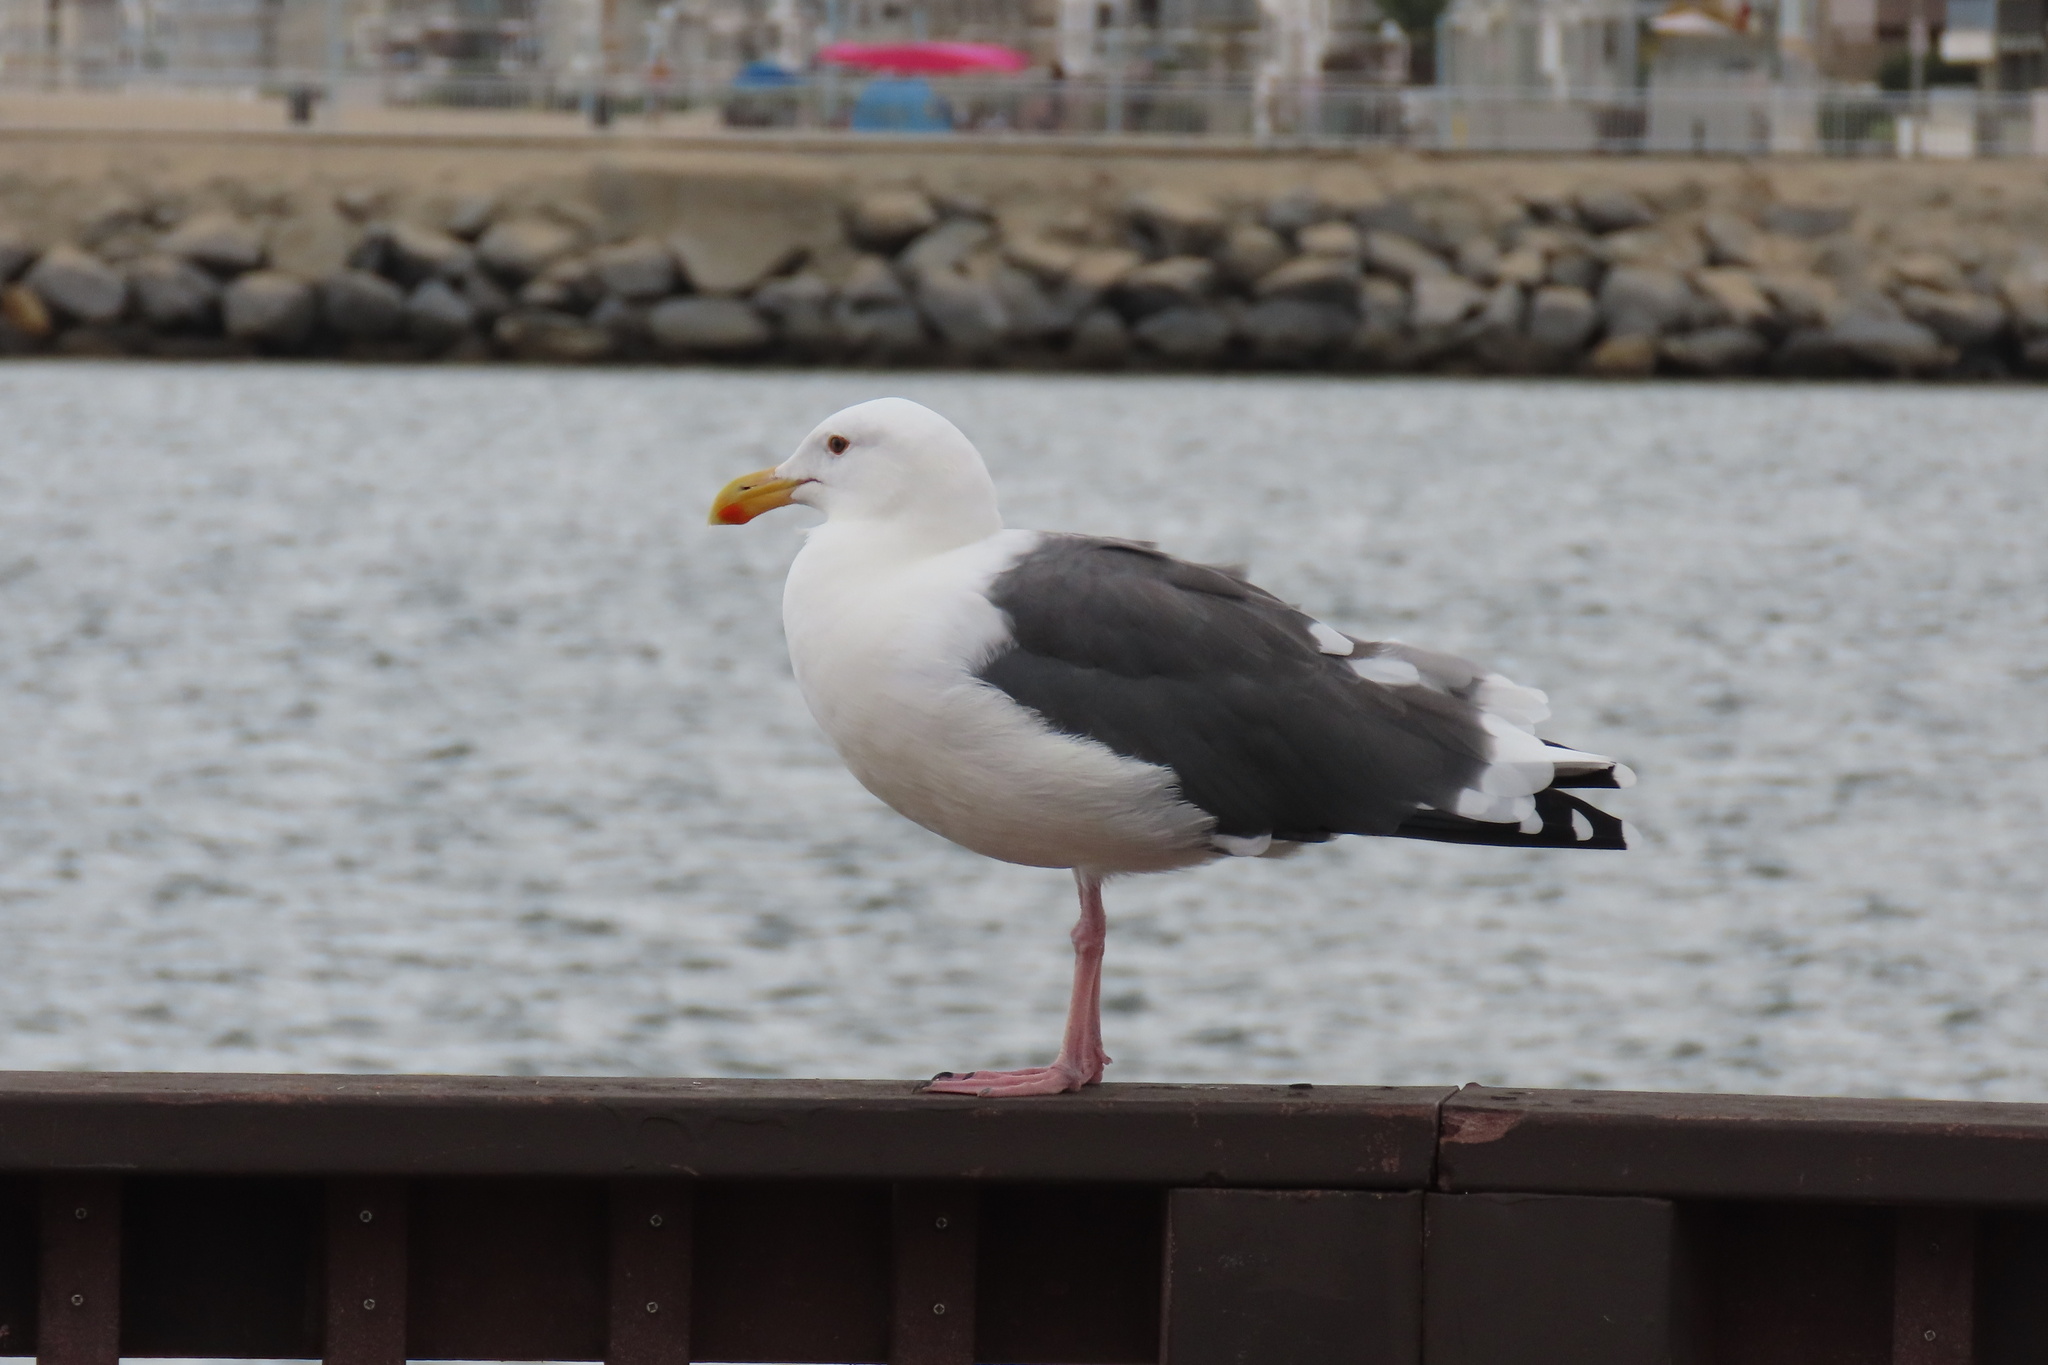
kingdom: Animalia
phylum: Chordata
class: Aves
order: Charadriiformes
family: Laridae
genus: Larus
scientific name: Larus occidentalis
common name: Western gull
